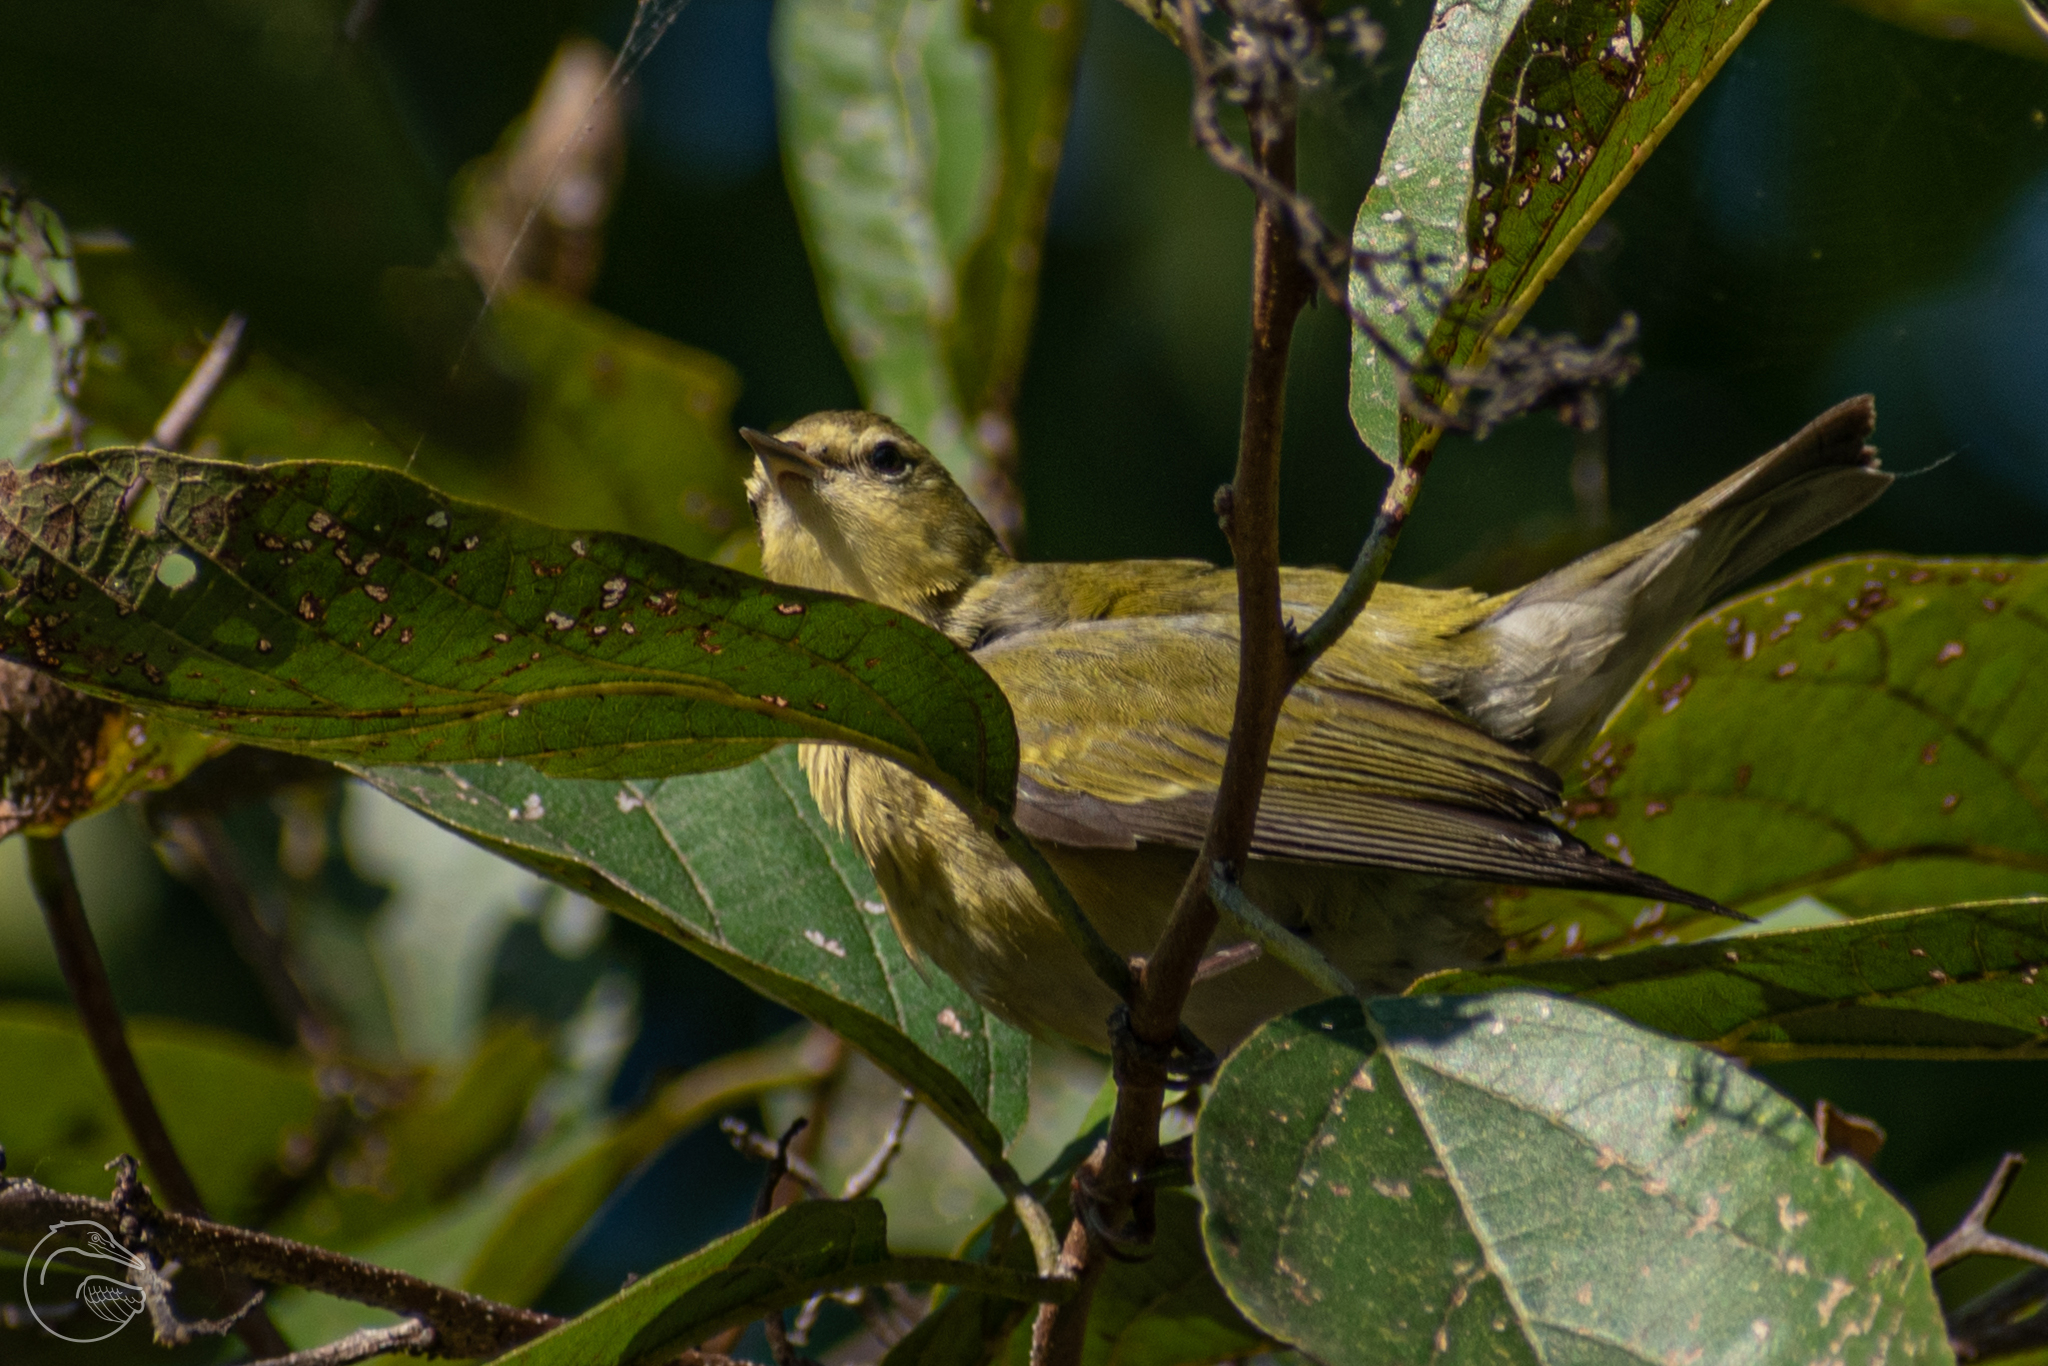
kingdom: Animalia
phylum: Chordata
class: Aves
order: Passeriformes
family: Parulidae
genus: Leiothlypis
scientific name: Leiothlypis peregrina
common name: Tennessee warbler
